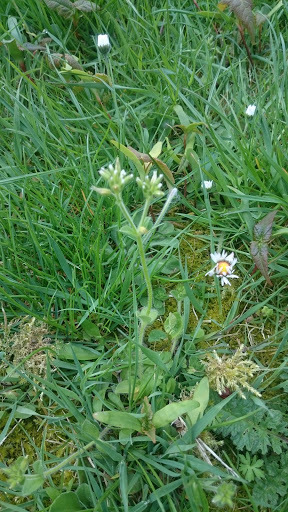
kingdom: Plantae
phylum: Tracheophyta
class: Magnoliopsida
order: Caryophyllales
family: Caryophyllaceae
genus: Cerastium
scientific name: Cerastium glomeratum
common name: Sticky chickweed
